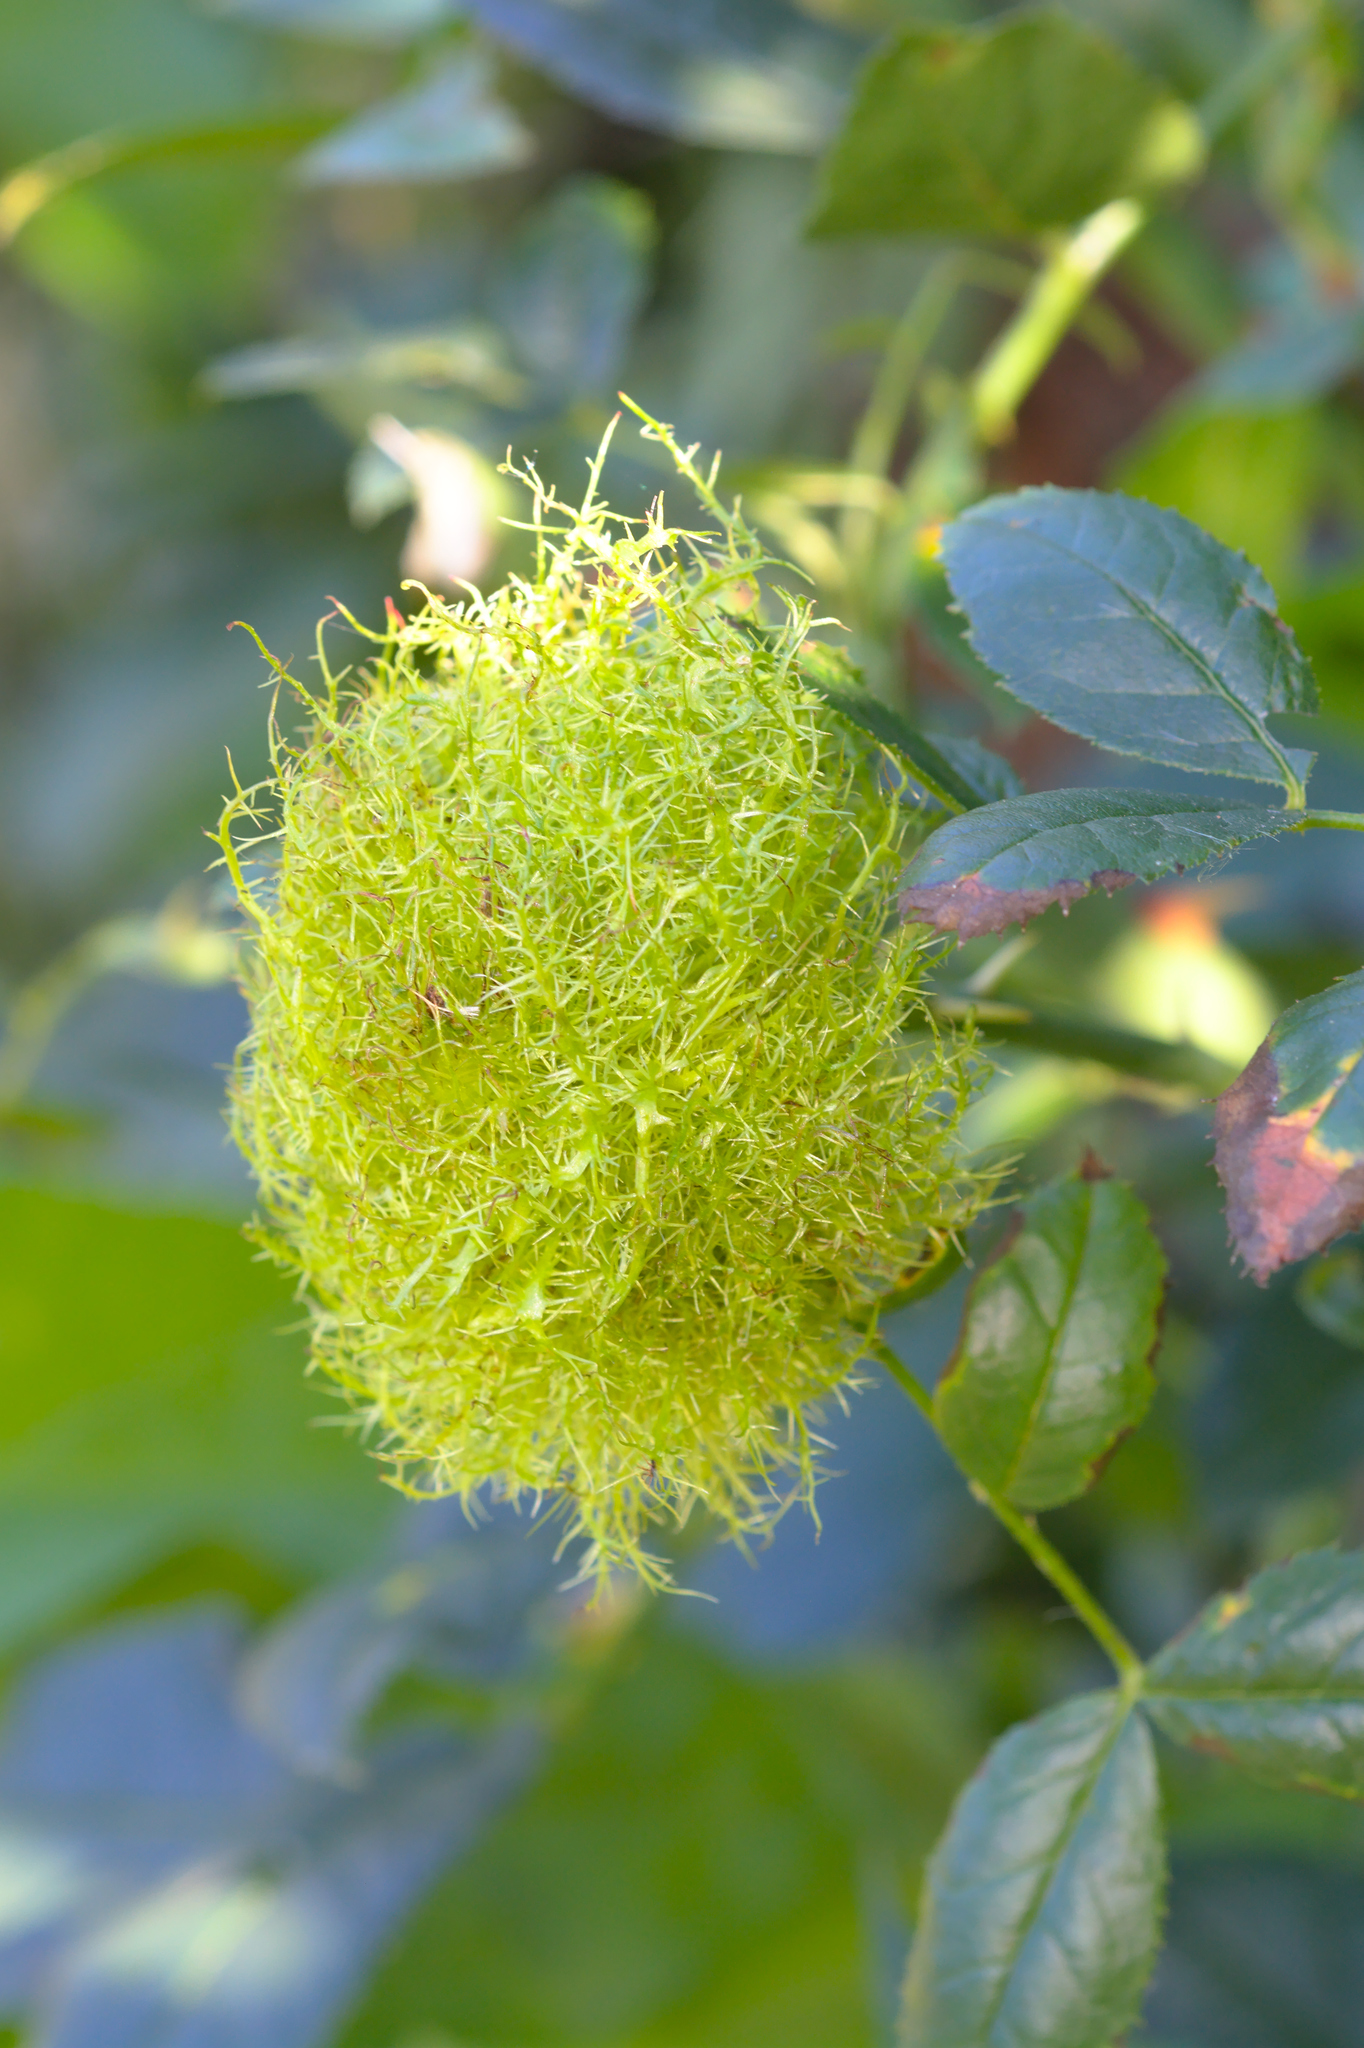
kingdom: Animalia
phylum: Arthropoda
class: Insecta
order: Hymenoptera
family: Cynipidae
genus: Diplolepis
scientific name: Diplolepis rosae
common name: Bedeguar gall
